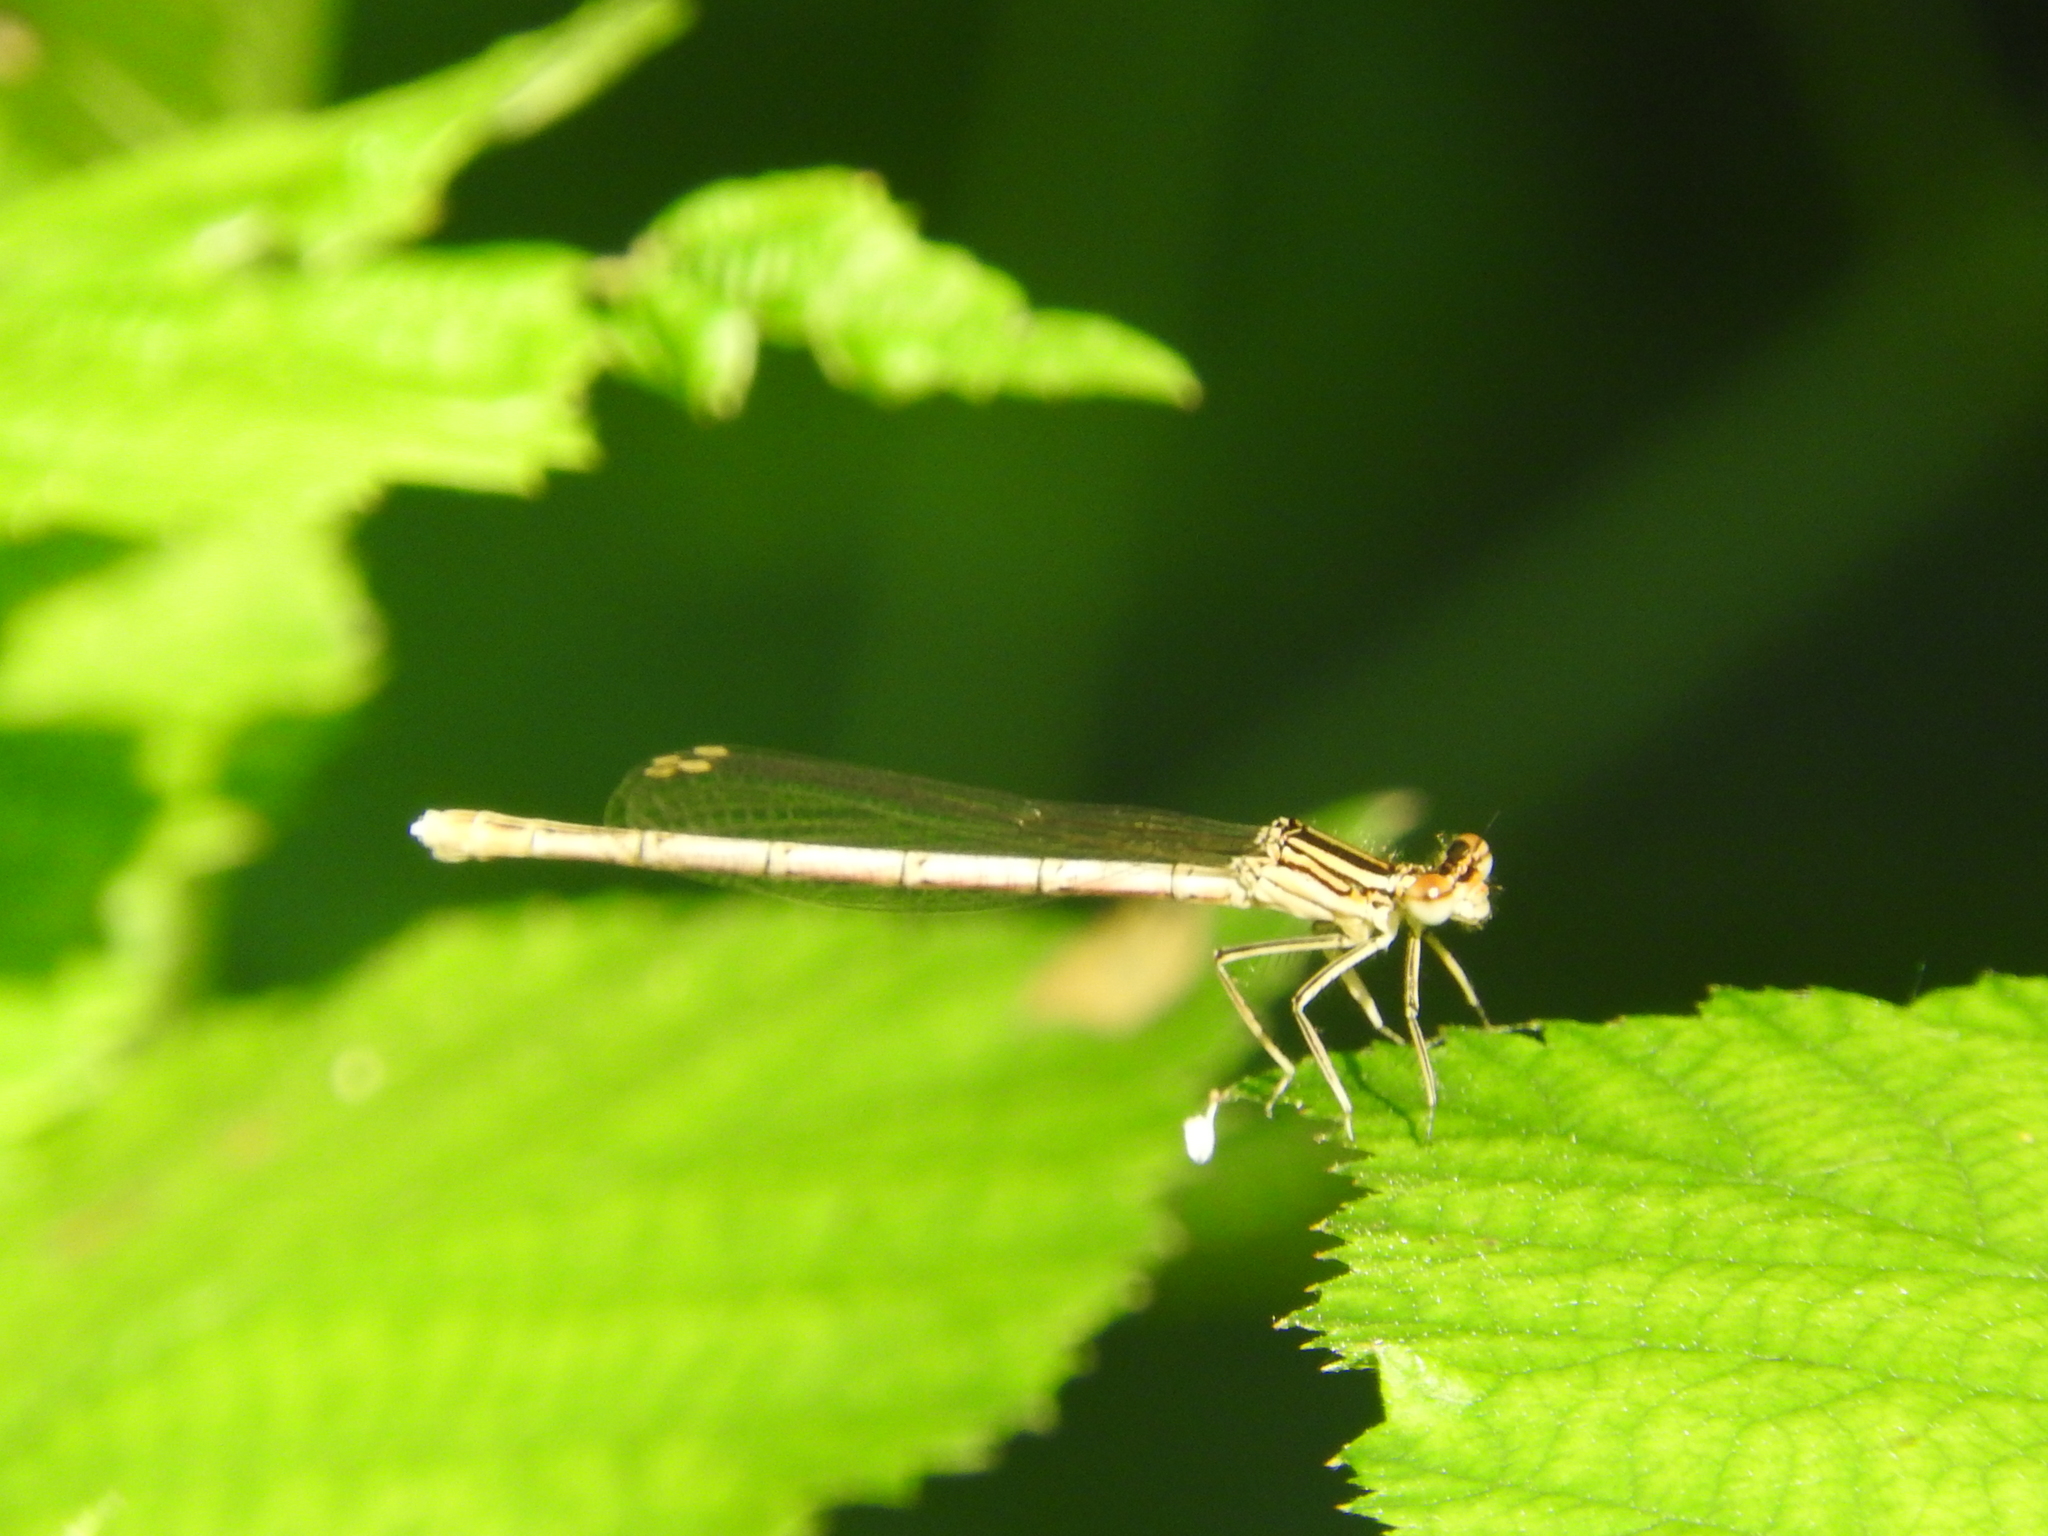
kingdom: Animalia
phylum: Arthropoda
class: Insecta
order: Odonata
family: Platycnemididae
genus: Platycnemis
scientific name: Platycnemis pennipes
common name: White-legged damselfly
